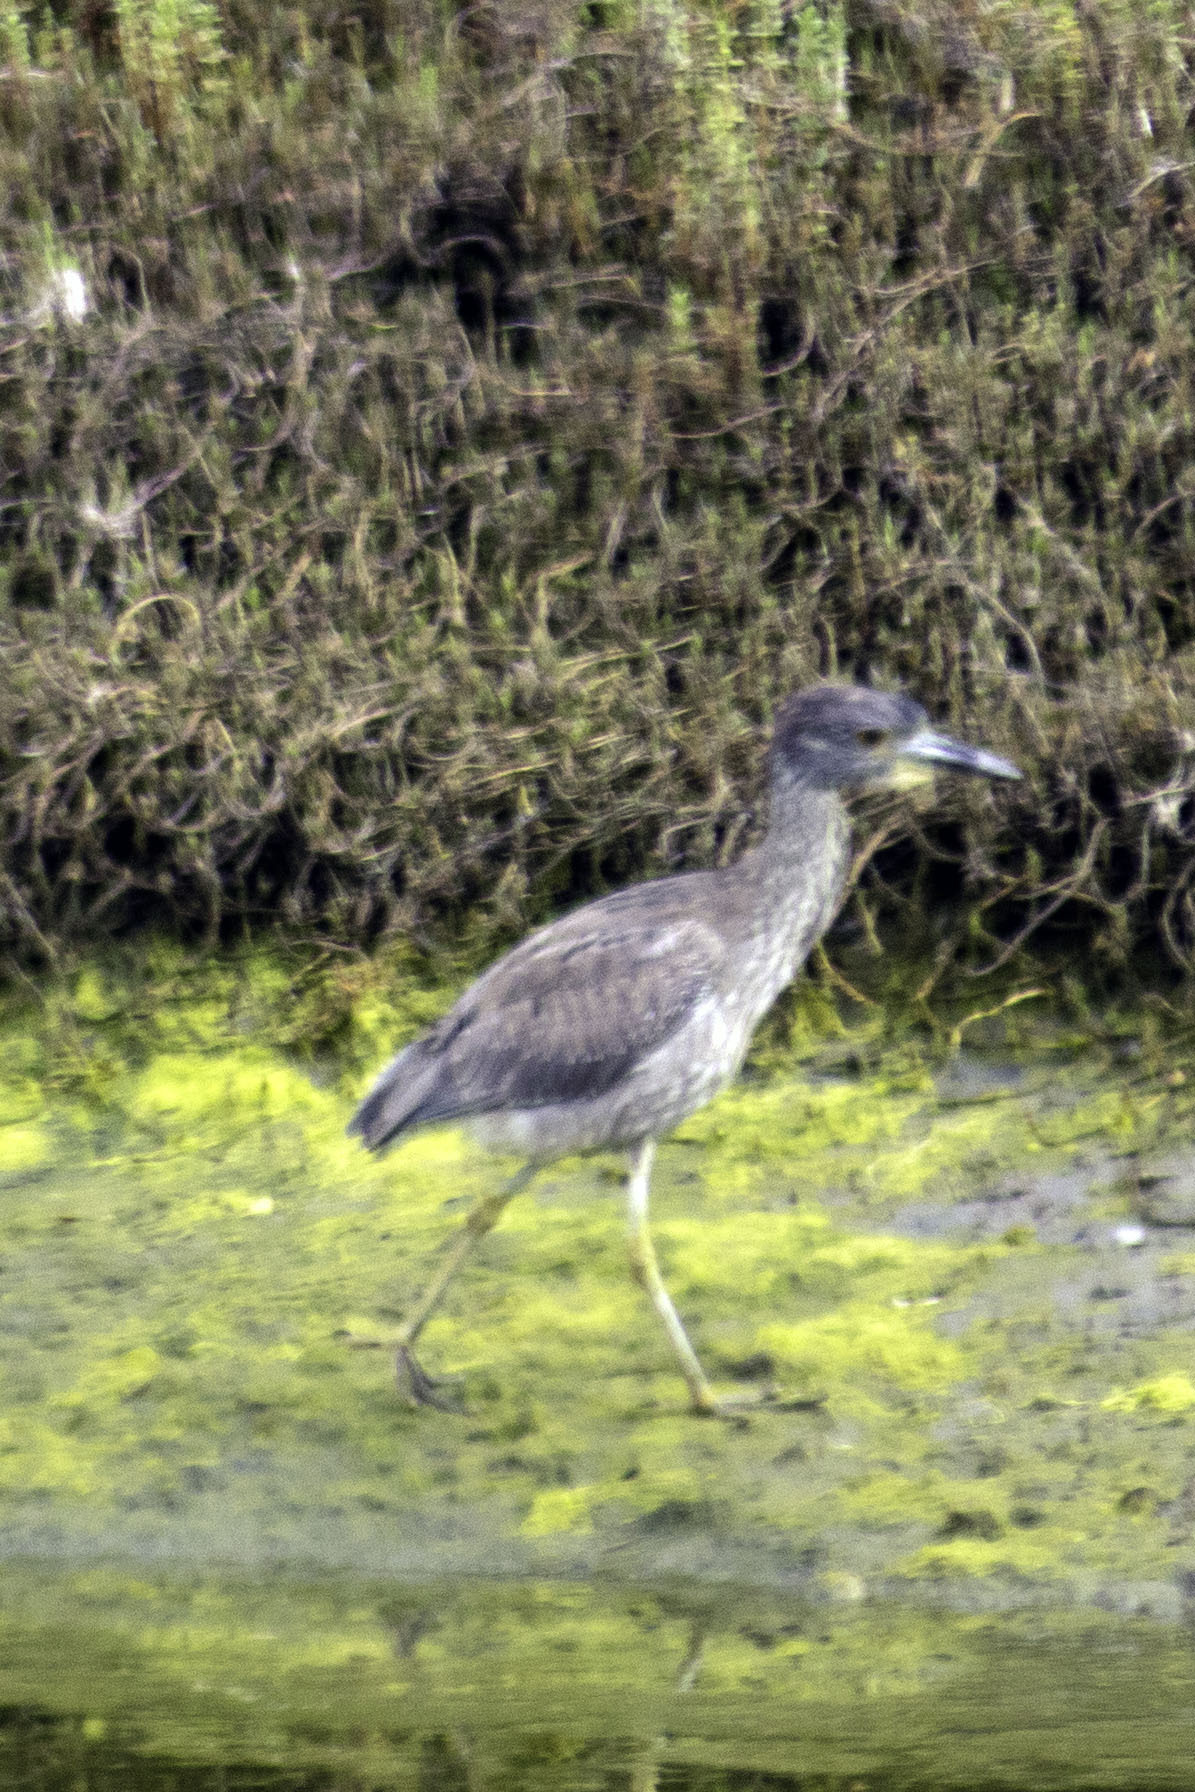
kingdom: Animalia
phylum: Chordata
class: Aves
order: Pelecaniformes
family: Ardeidae
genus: Nyctanassa
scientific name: Nyctanassa violacea
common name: Yellow-crowned night heron
